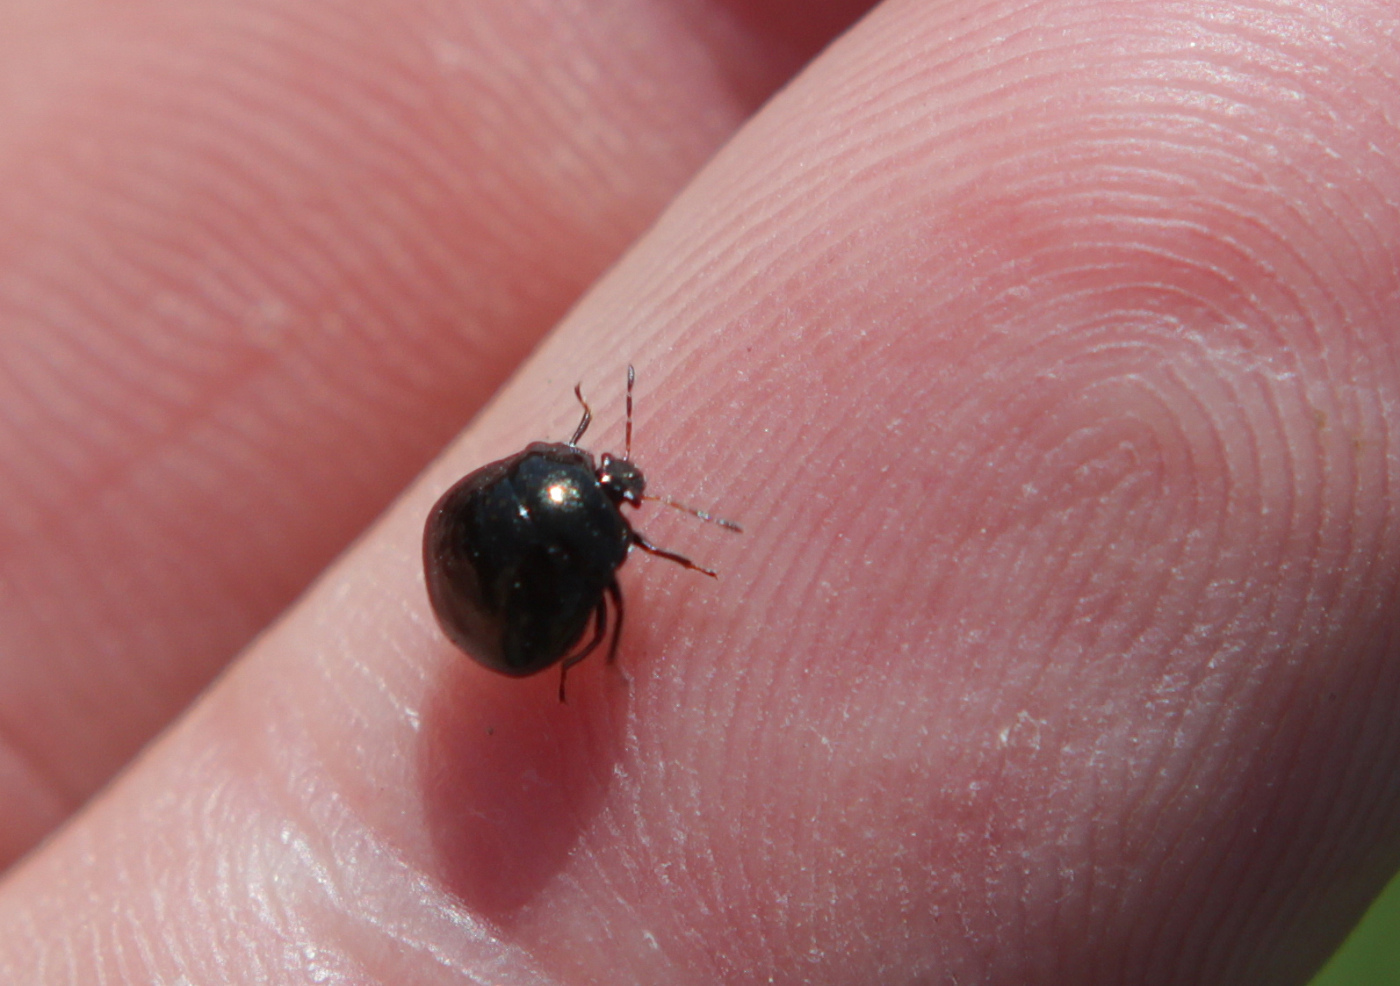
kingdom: Animalia
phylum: Arthropoda
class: Insecta
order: Hemiptera
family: Plataspidae
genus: Coptosoma
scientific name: Coptosoma scutellatum
